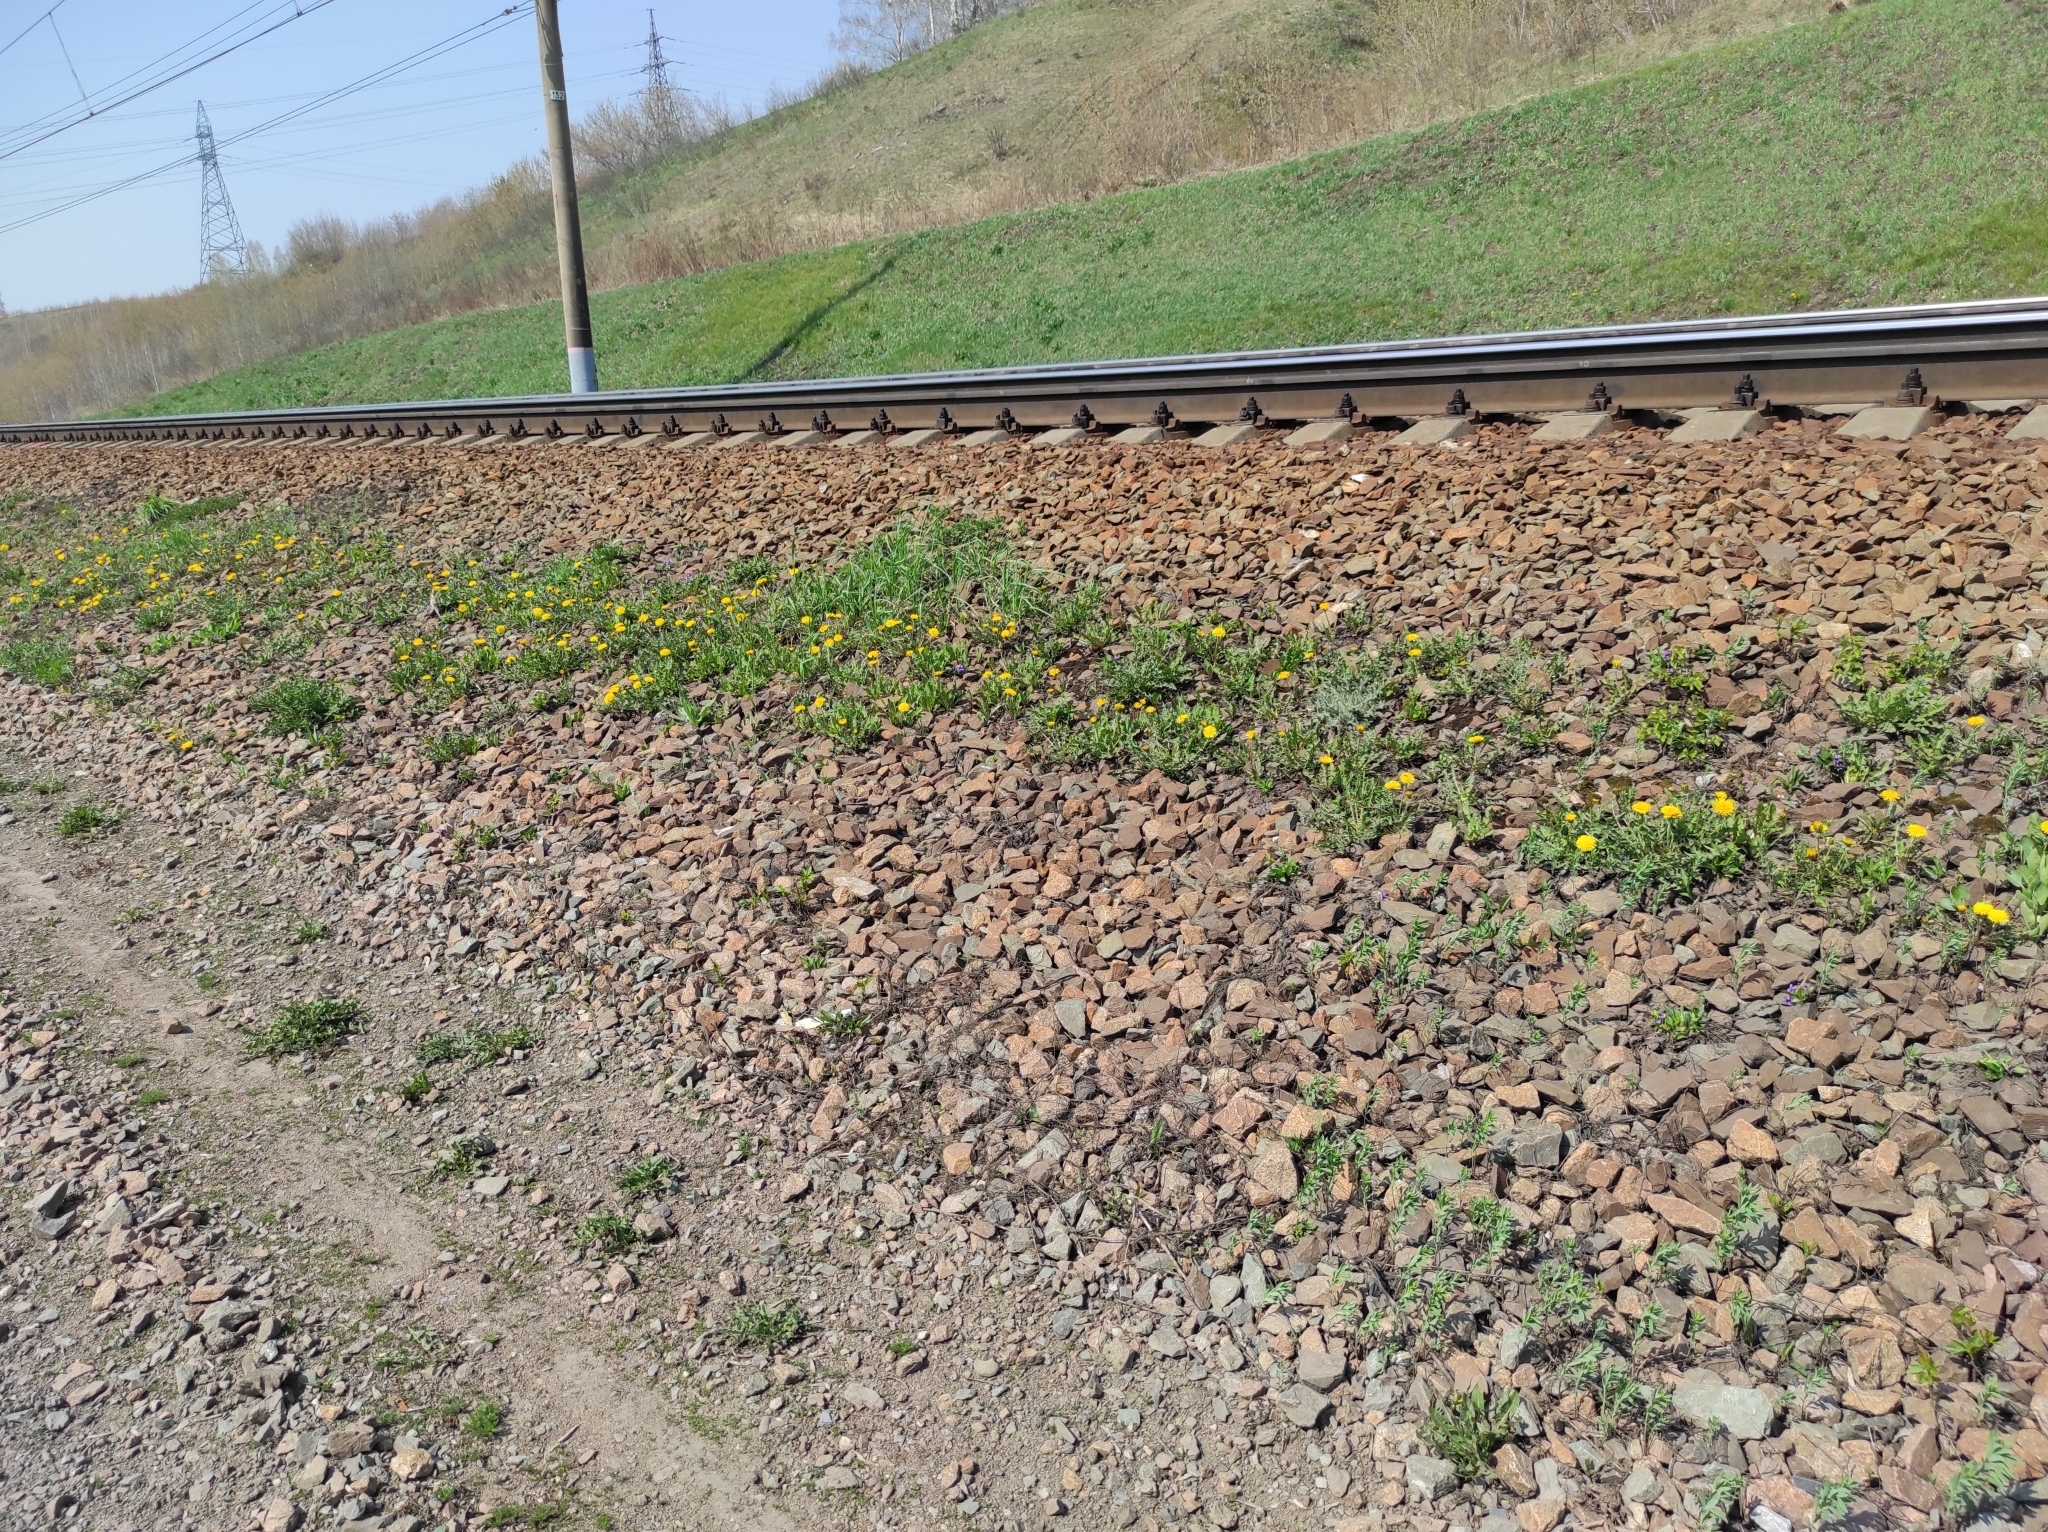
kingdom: Plantae
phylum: Tracheophyta
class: Magnoliopsida
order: Asterales
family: Asteraceae
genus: Taraxacum
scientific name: Taraxacum officinale
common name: Common dandelion
